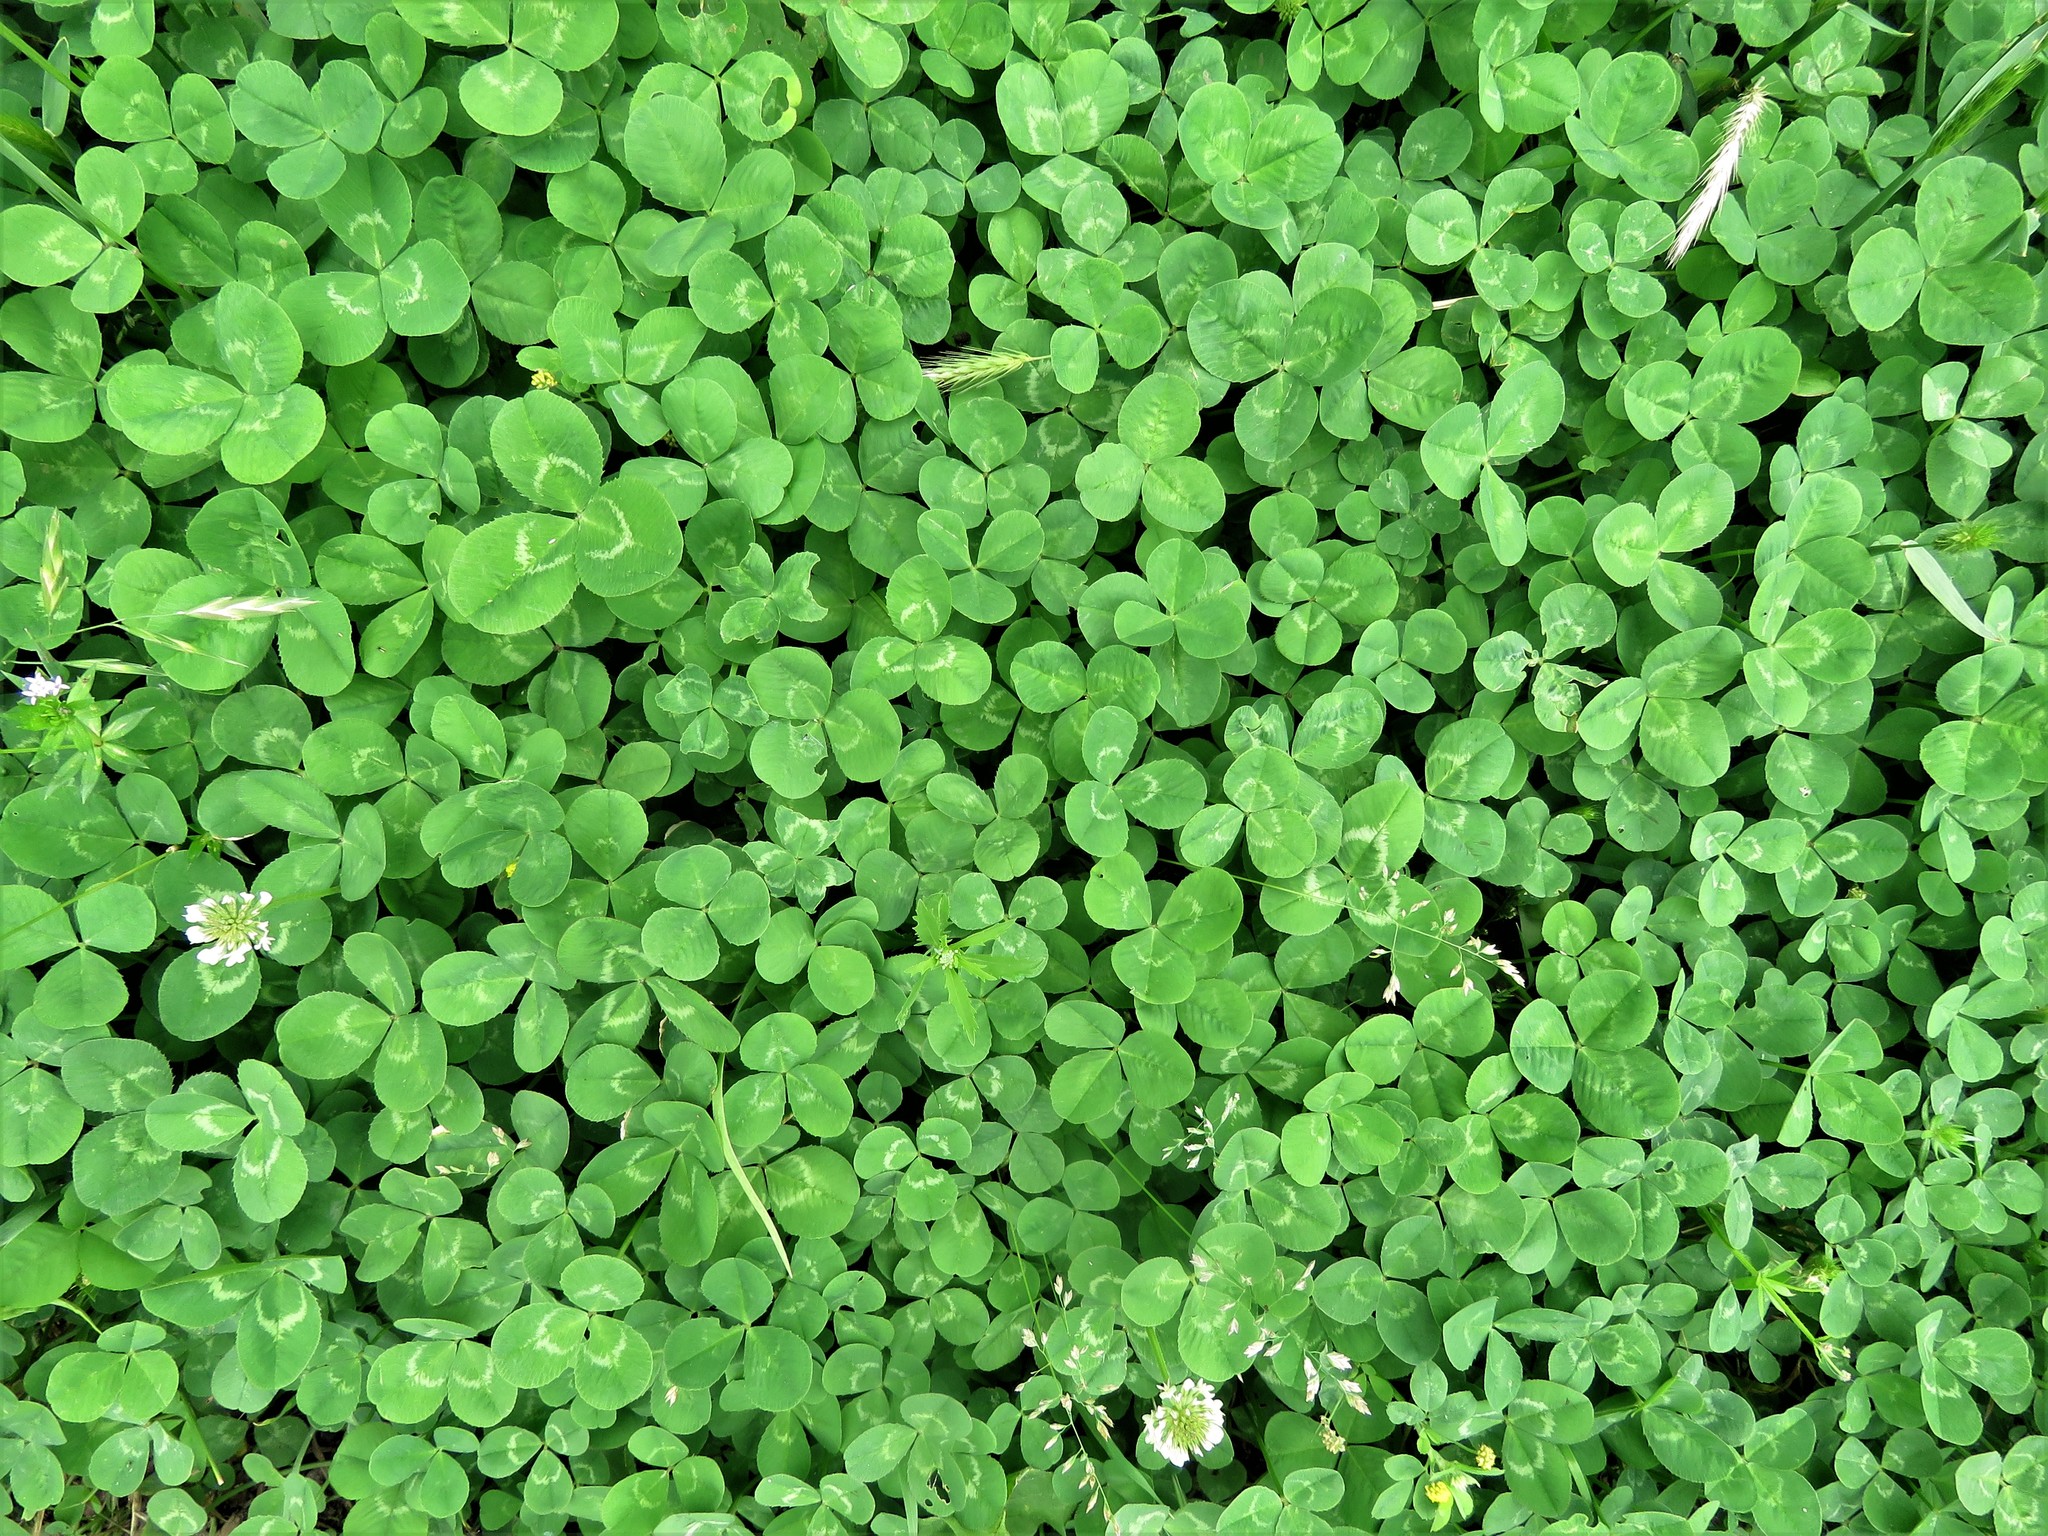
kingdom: Plantae
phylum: Tracheophyta
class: Magnoliopsida
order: Fabales
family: Fabaceae
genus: Trifolium
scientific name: Trifolium repens
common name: White clover
